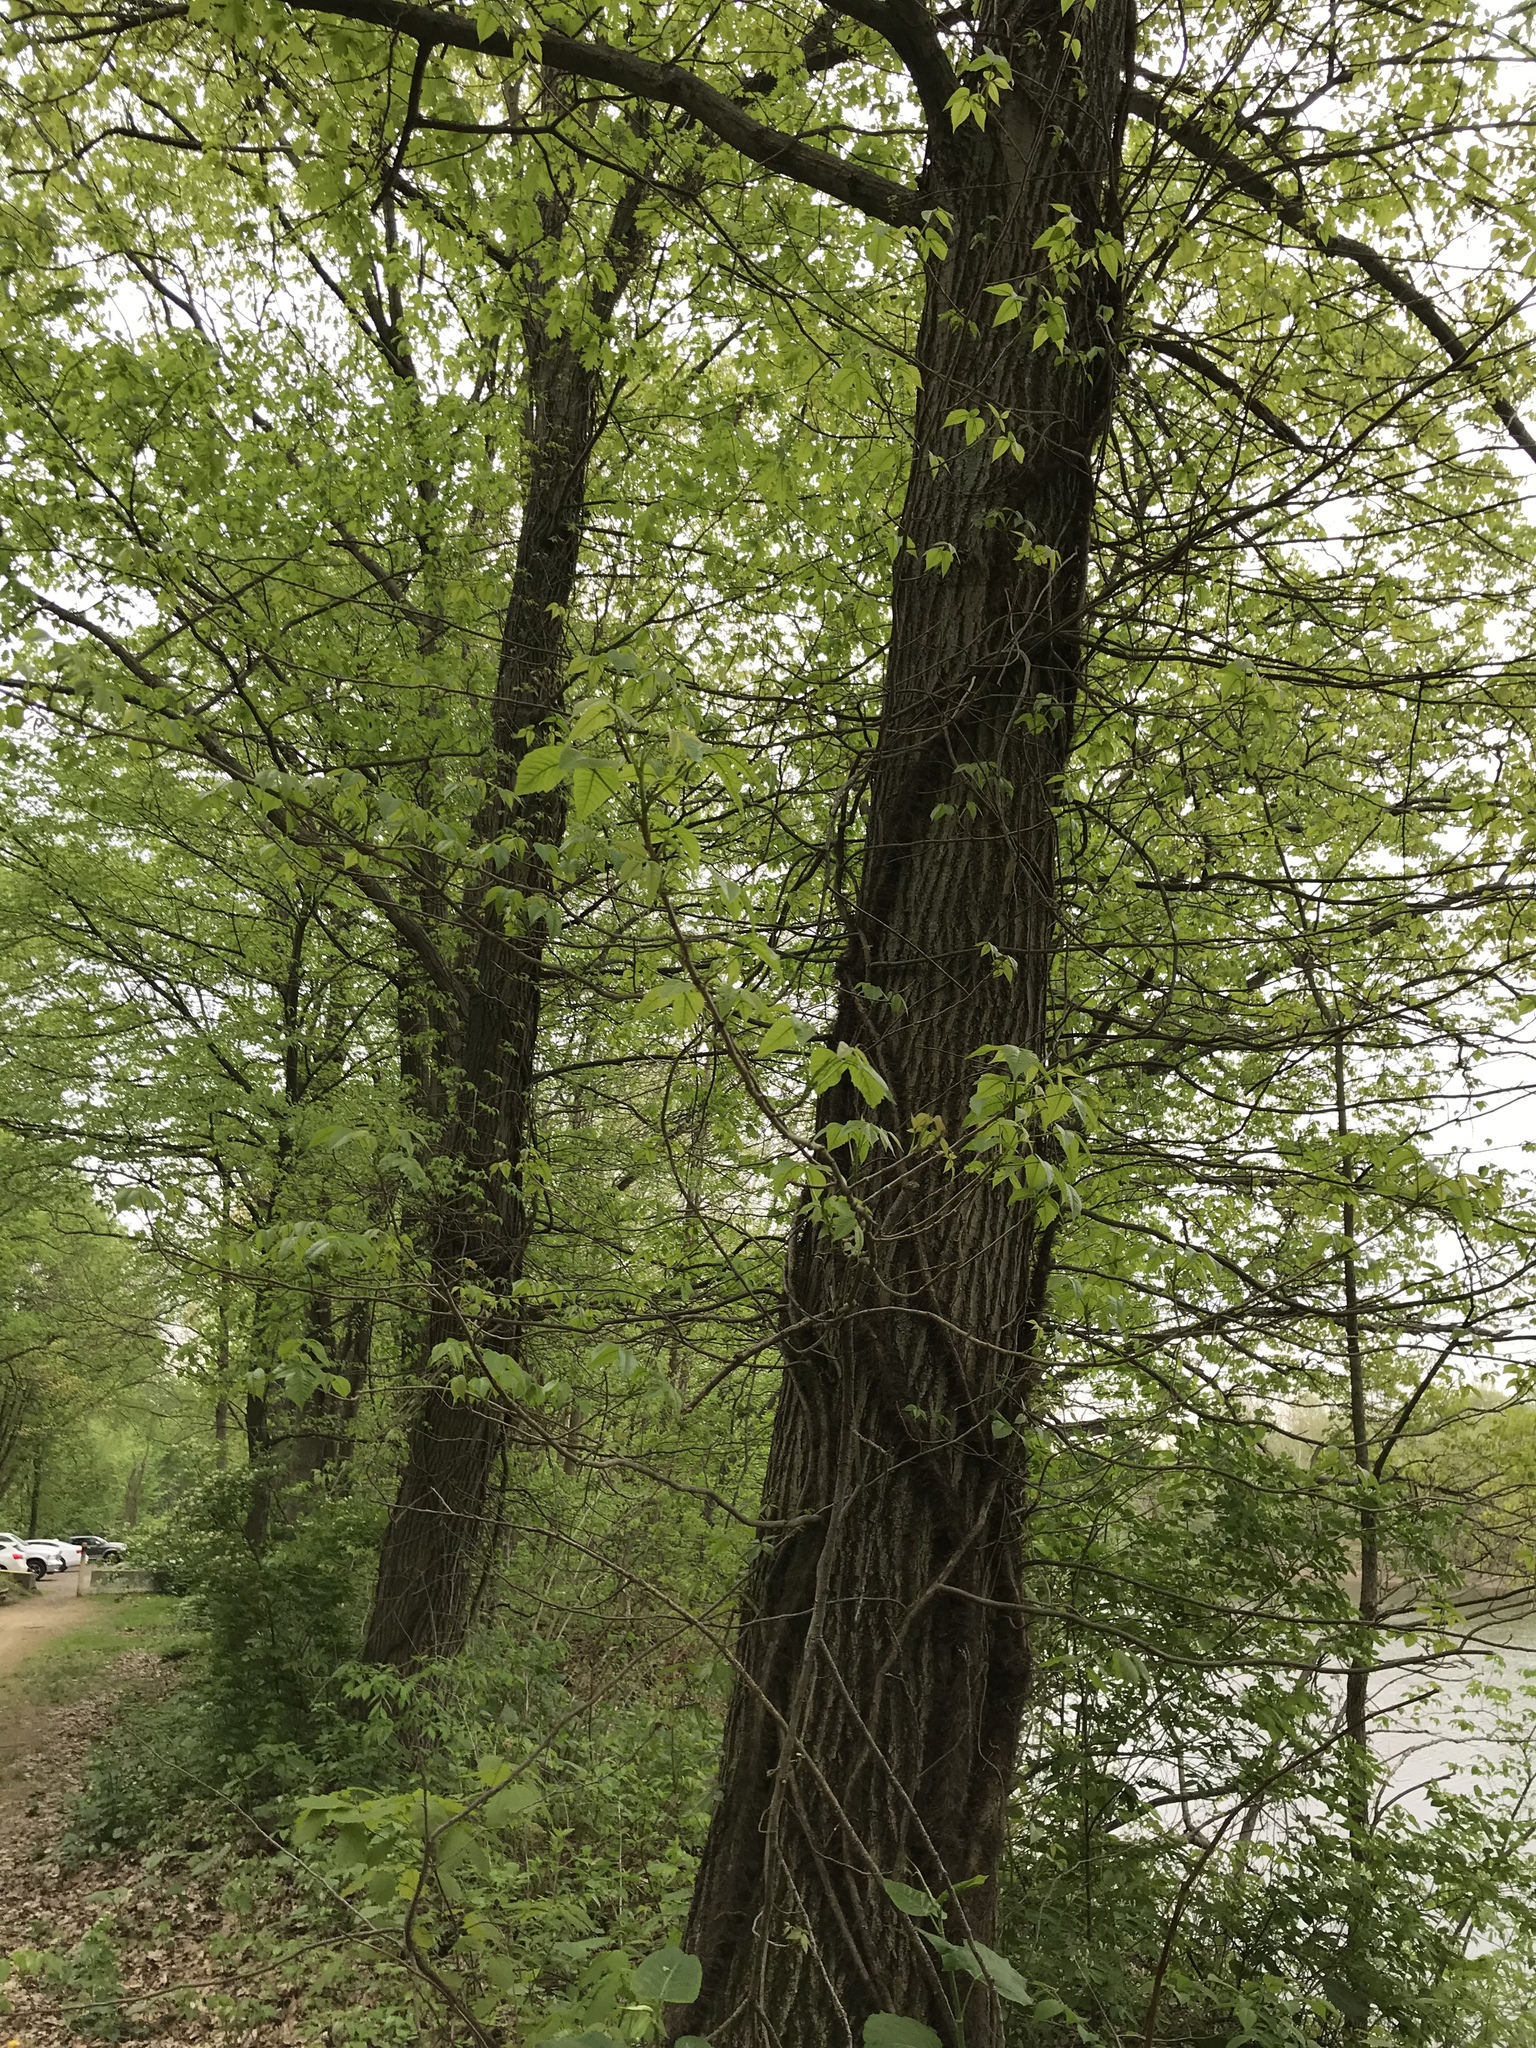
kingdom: Plantae
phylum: Tracheophyta
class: Magnoliopsida
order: Sapindales
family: Anacardiaceae
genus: Toxicodendron
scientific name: Toxicodendron radicans
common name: Poison ivy
